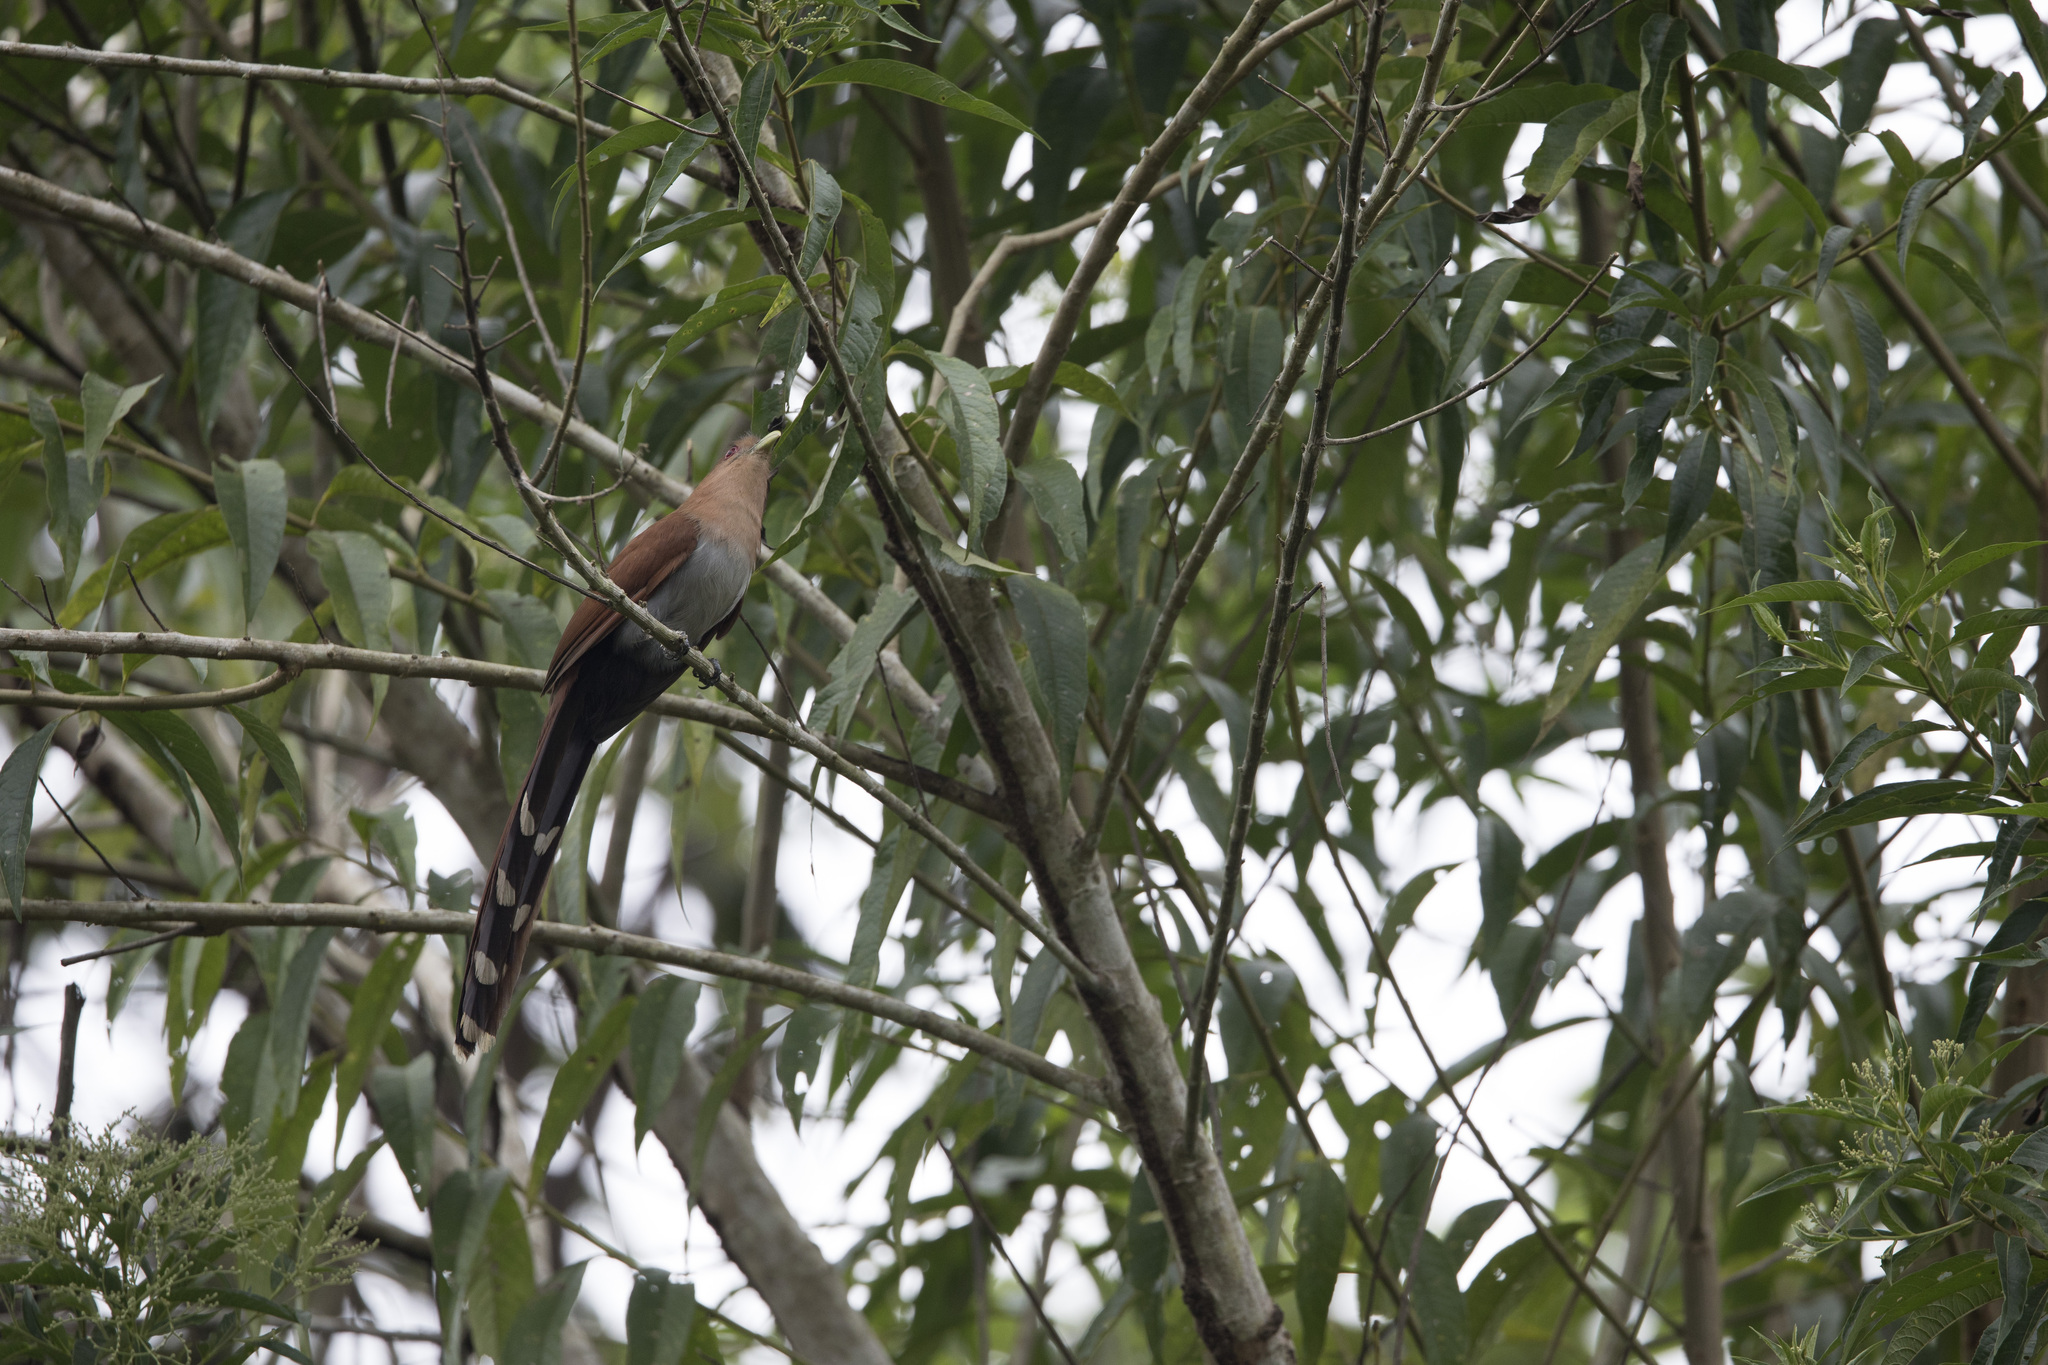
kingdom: Animalia
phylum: Chordata
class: Aves
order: Cuculiformes
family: Cuculidae
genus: Piaya
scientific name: Piaya cayana
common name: Squirrel cuckoo
